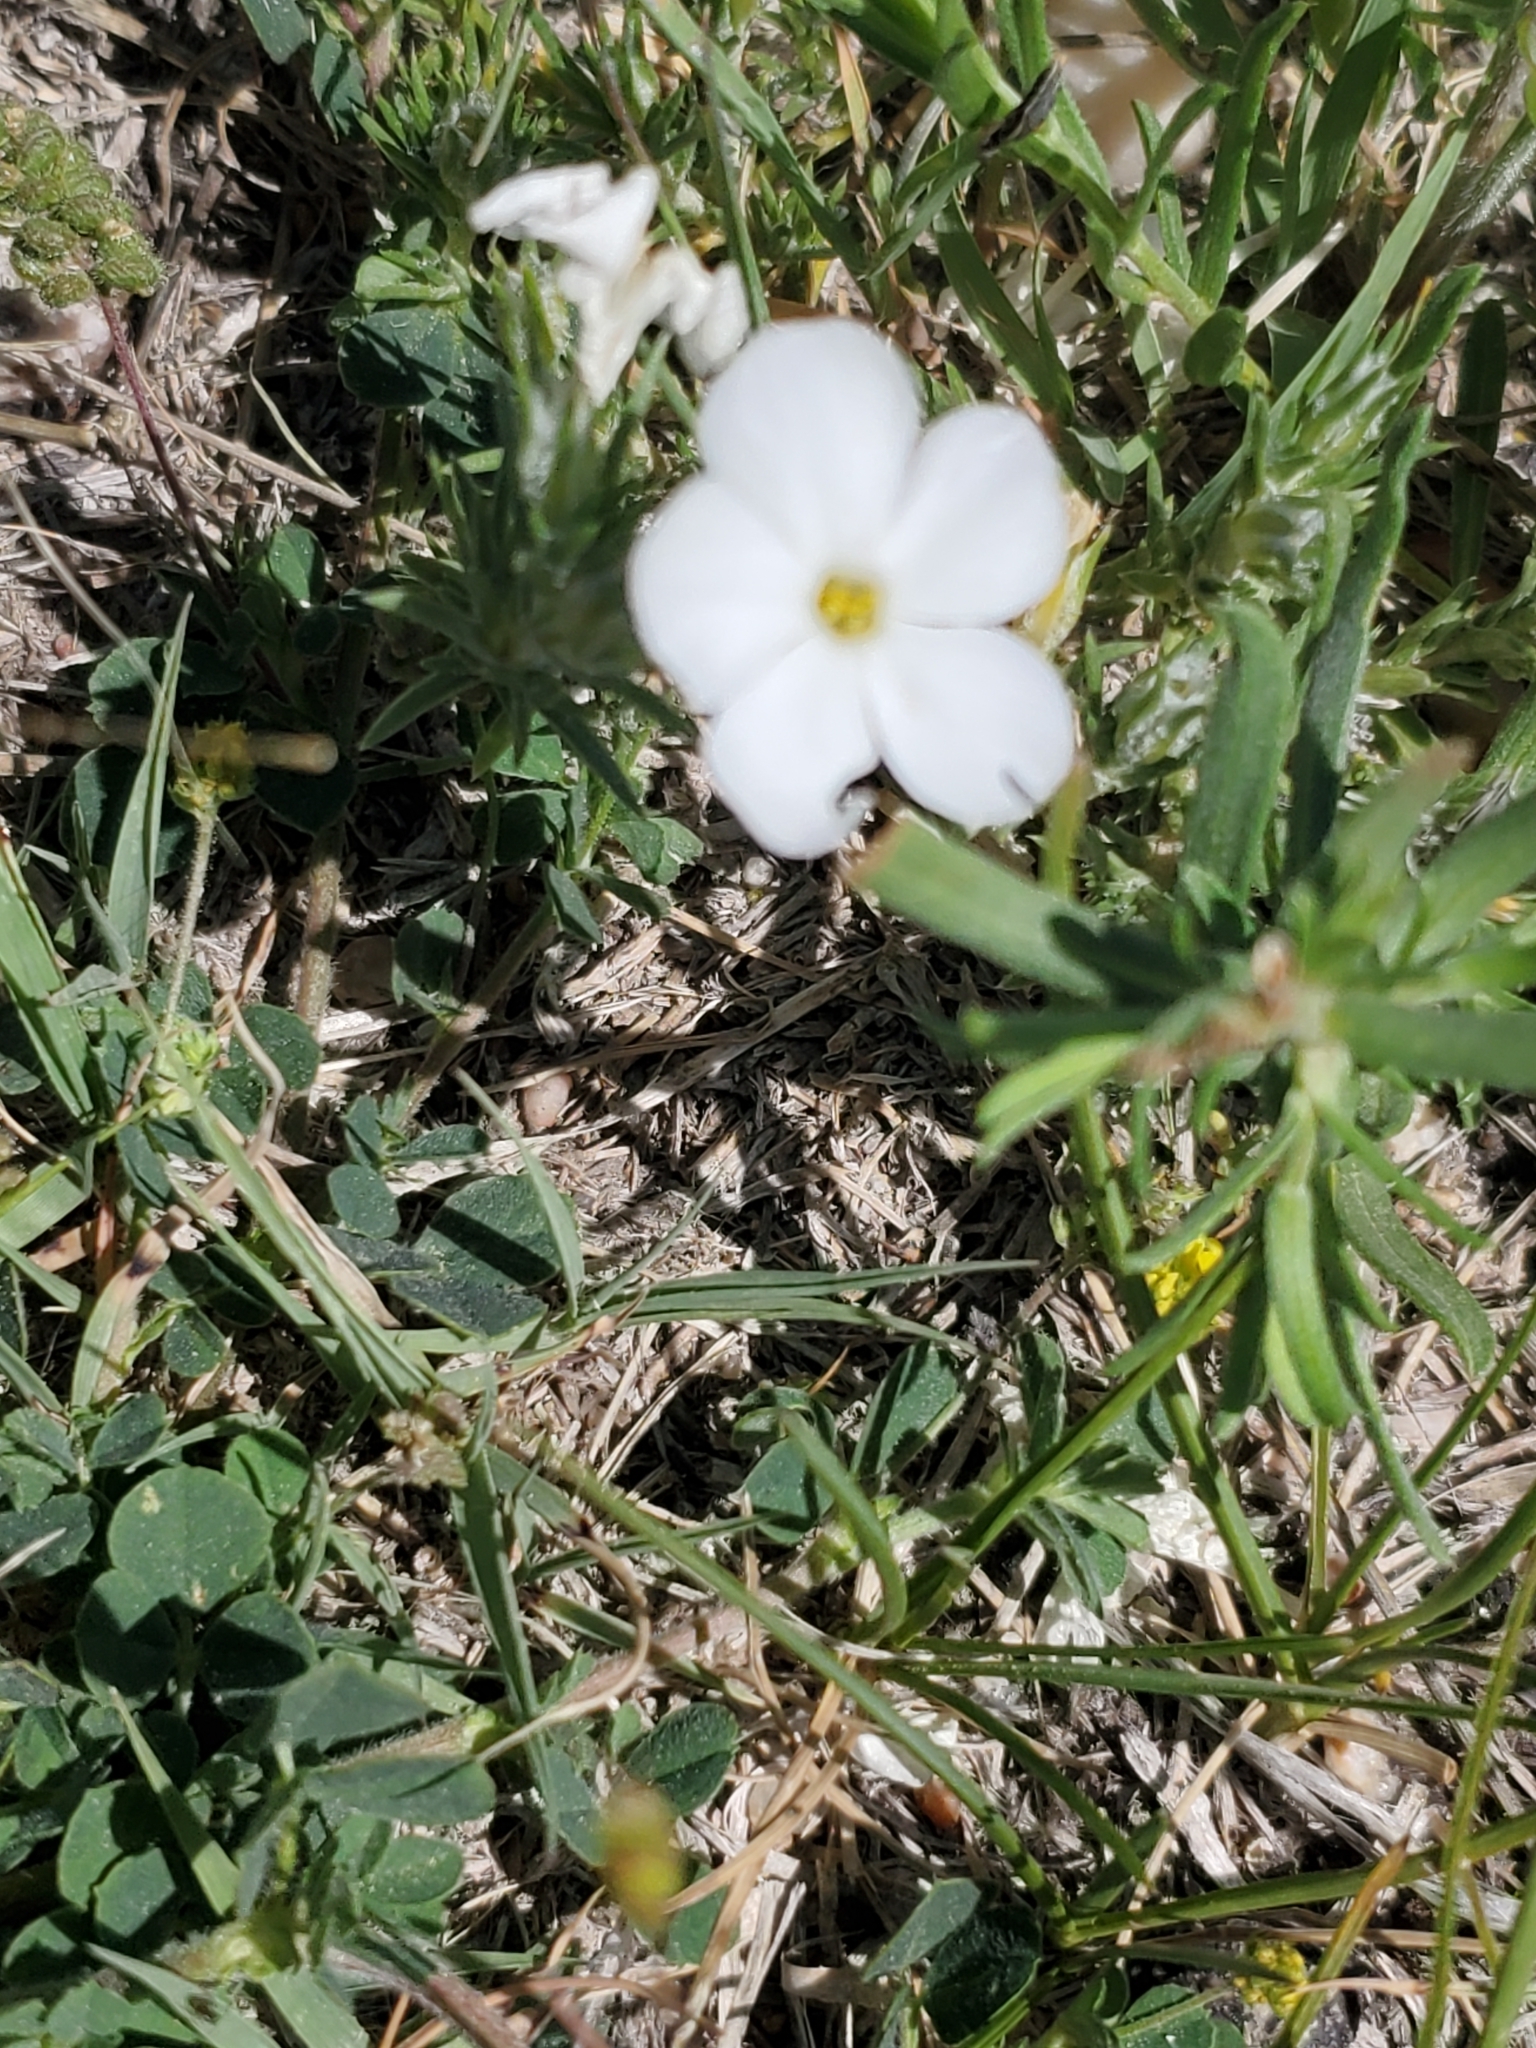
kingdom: Plantae
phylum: Tracheophyta
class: Magnoliopsida
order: Ericales
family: Polemoniaceae
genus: Phlox
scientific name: Phlox hoodii
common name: Moss phlox
